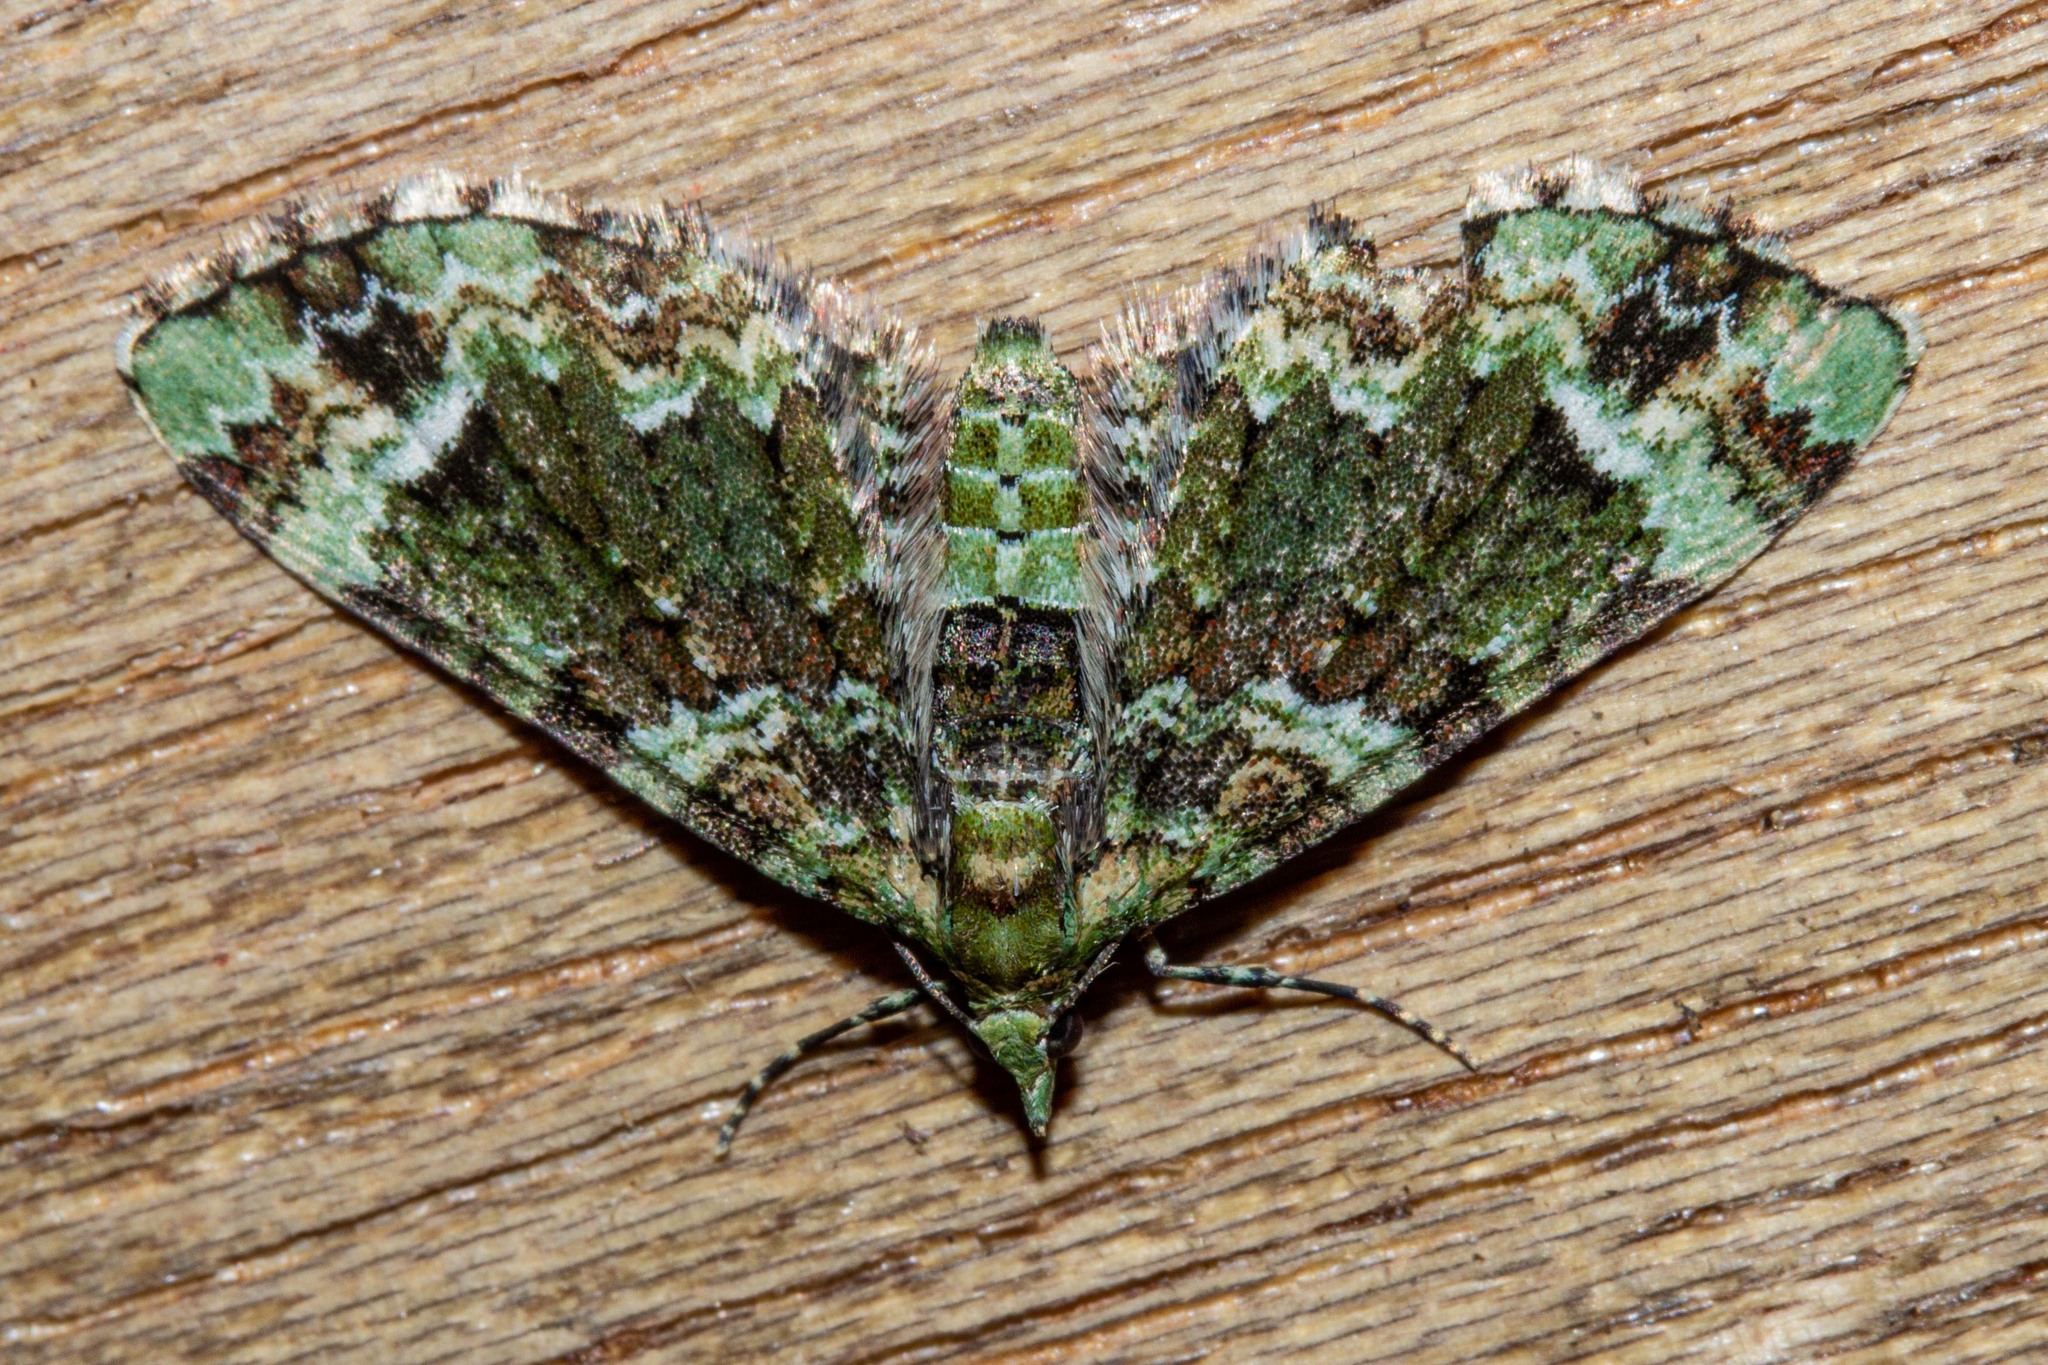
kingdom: Animalia
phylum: Arthropoda
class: Insecta
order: Lepidoptera
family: Geometridae
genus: Pasiphila
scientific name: Pasiphila bilineolata
